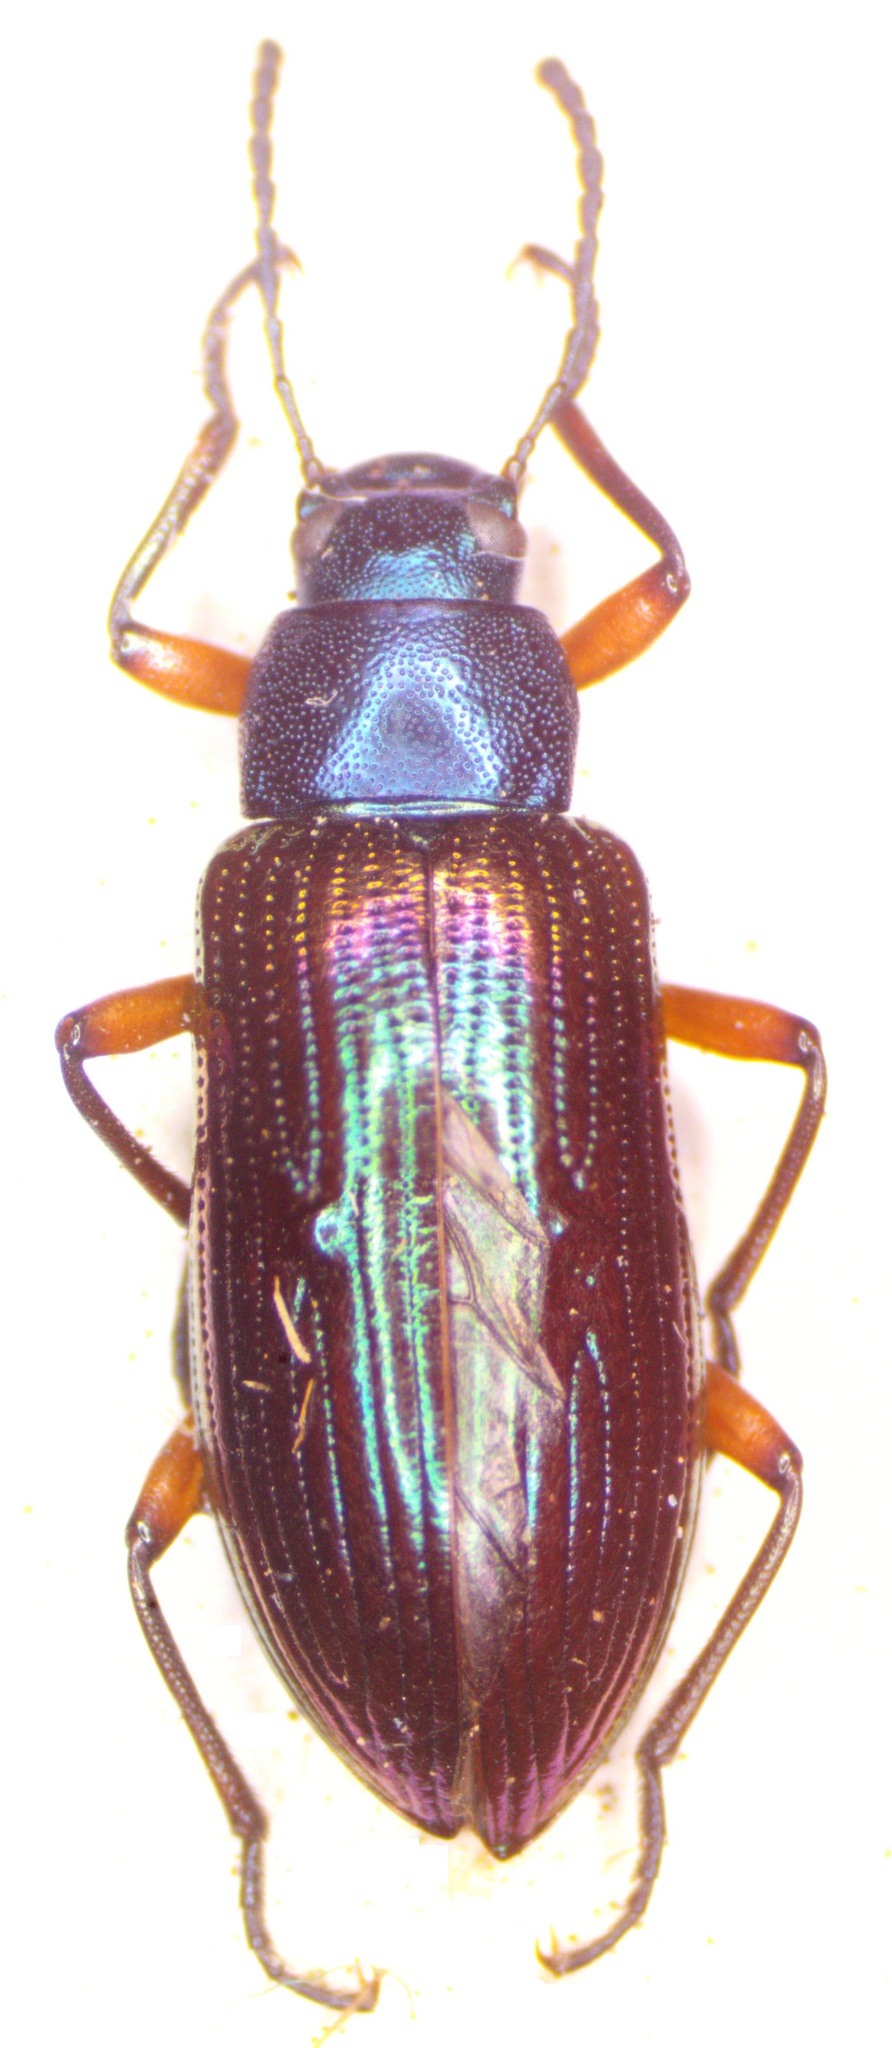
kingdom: Animalia
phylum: Arthropoda
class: Insecta
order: Coleoptera
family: Tenebrionidae
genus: Strongylium
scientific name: Strongylium
